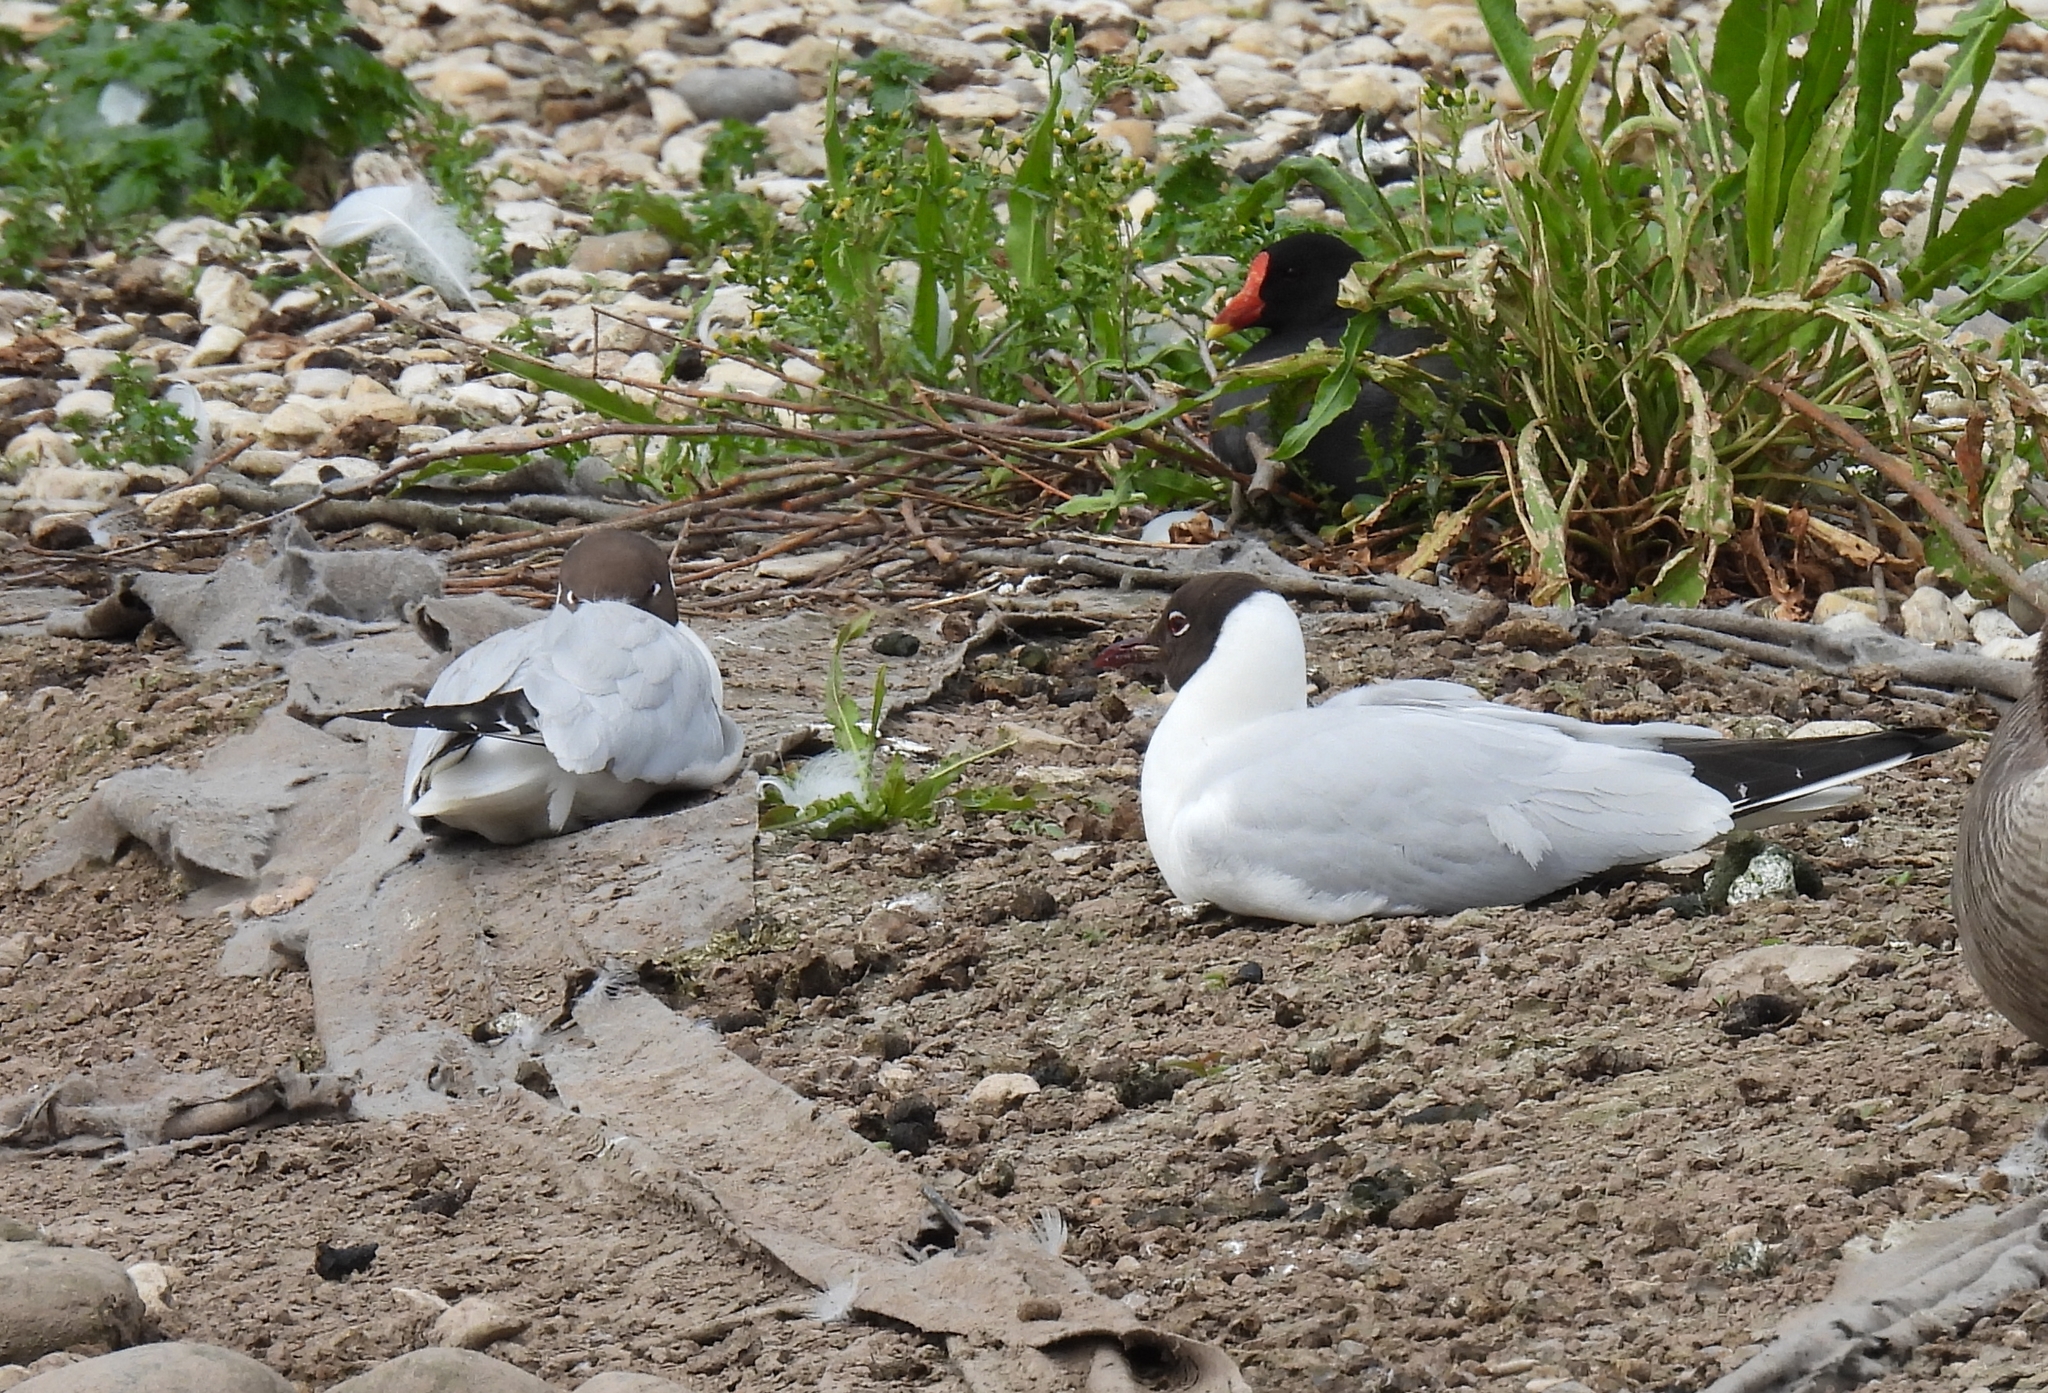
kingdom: Animalia
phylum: Chordata
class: Aves
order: Charadriiformes
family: Laridae
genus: Chroicocephalus
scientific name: Chroicocephalus ridibundus
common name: Black-headed gull
